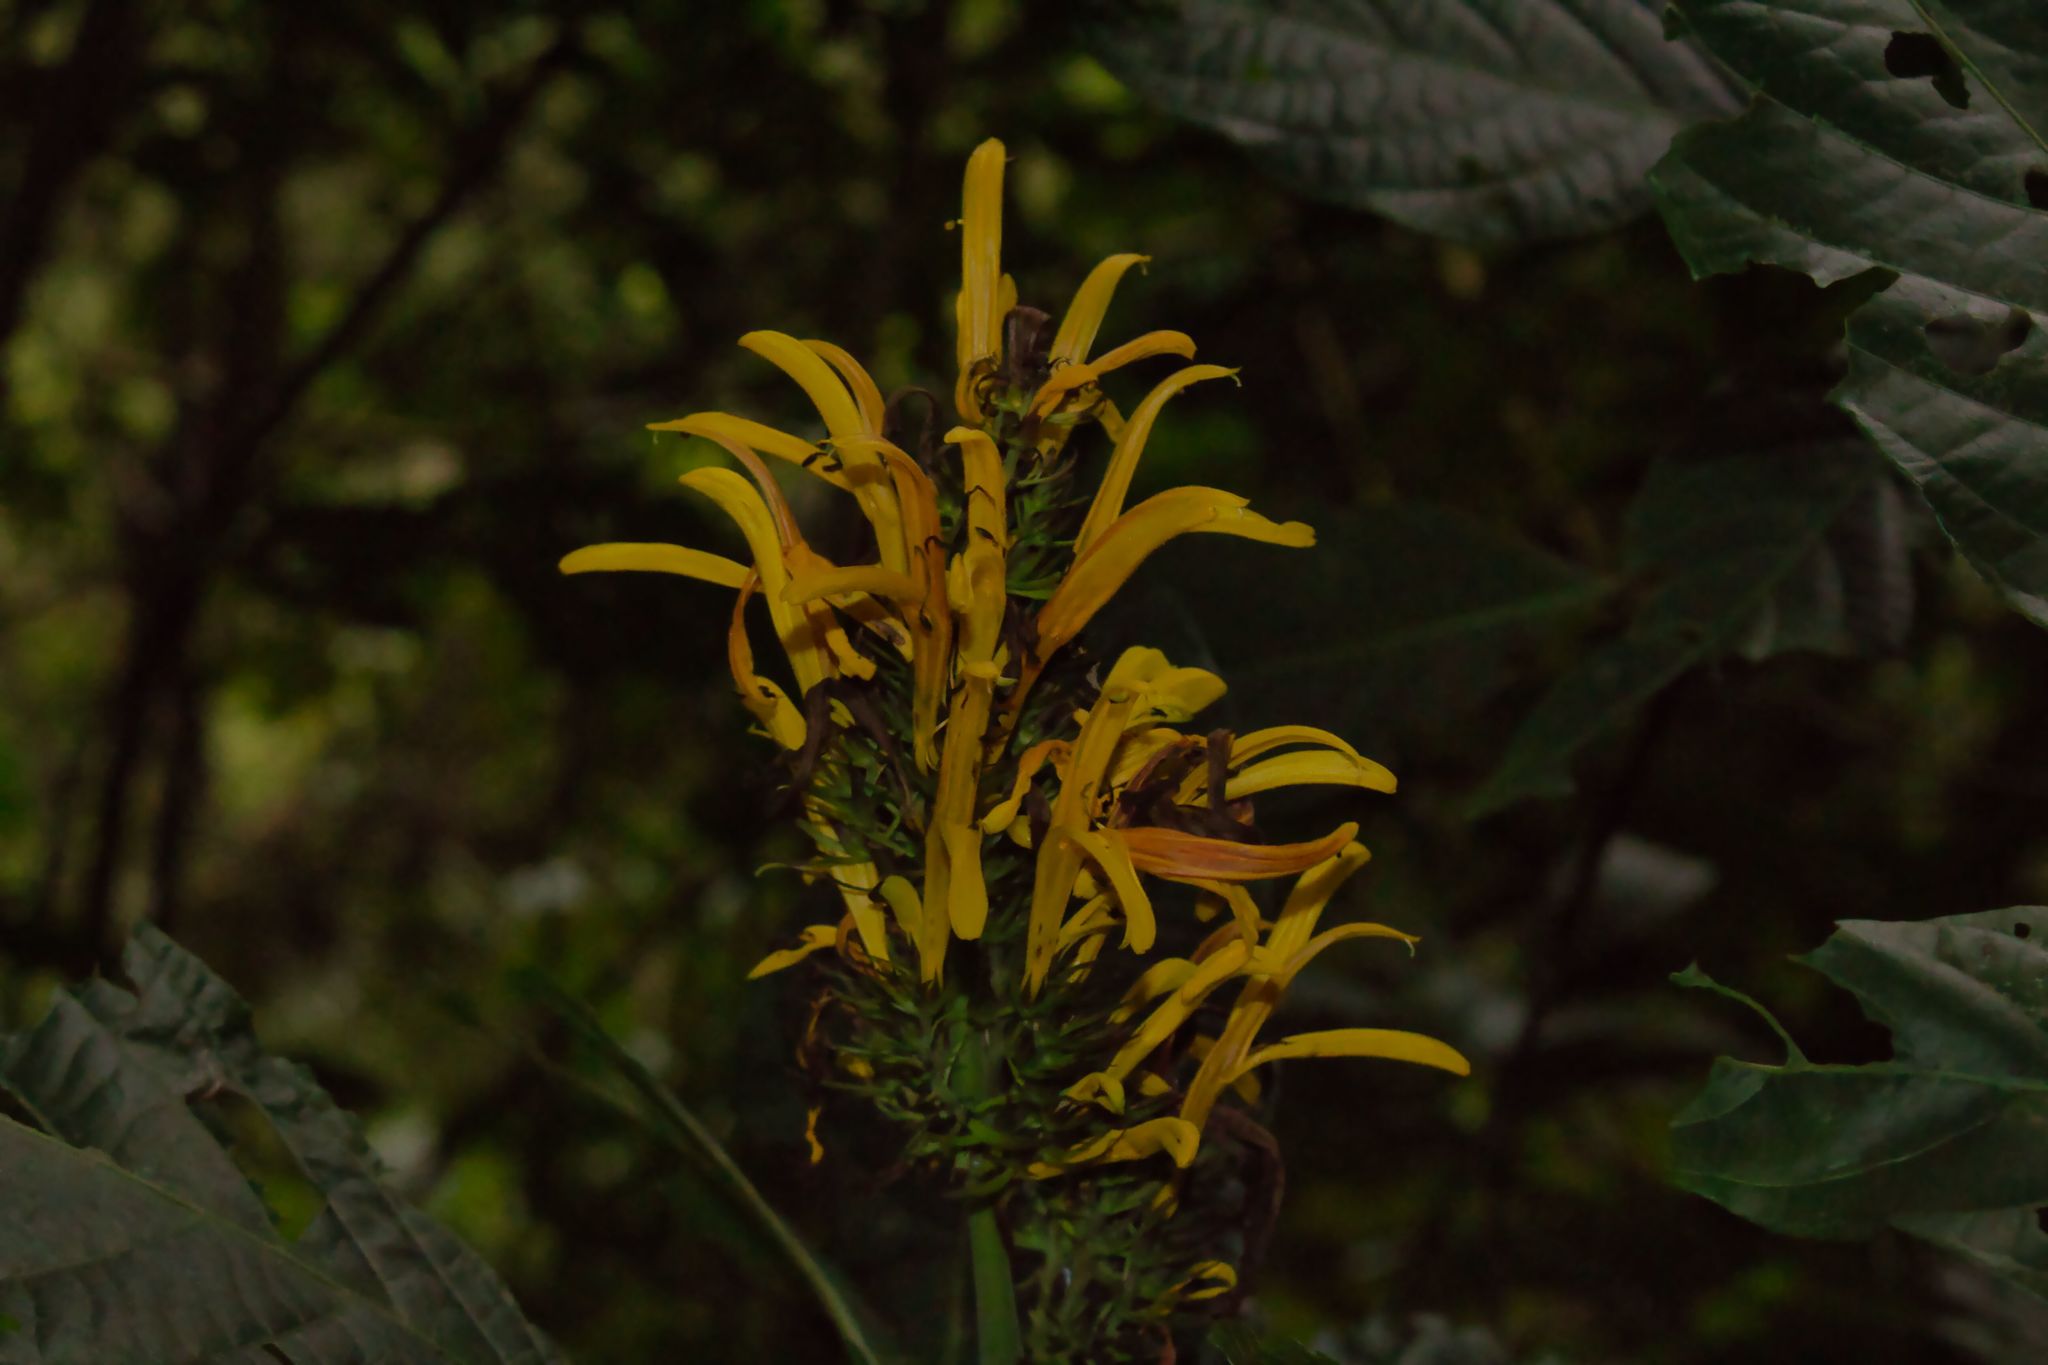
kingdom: Plantae
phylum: Tracheophyta
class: Magnoliopsida
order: Lamiales
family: Acanthaceae
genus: Justicia
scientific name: Justicia aurea
